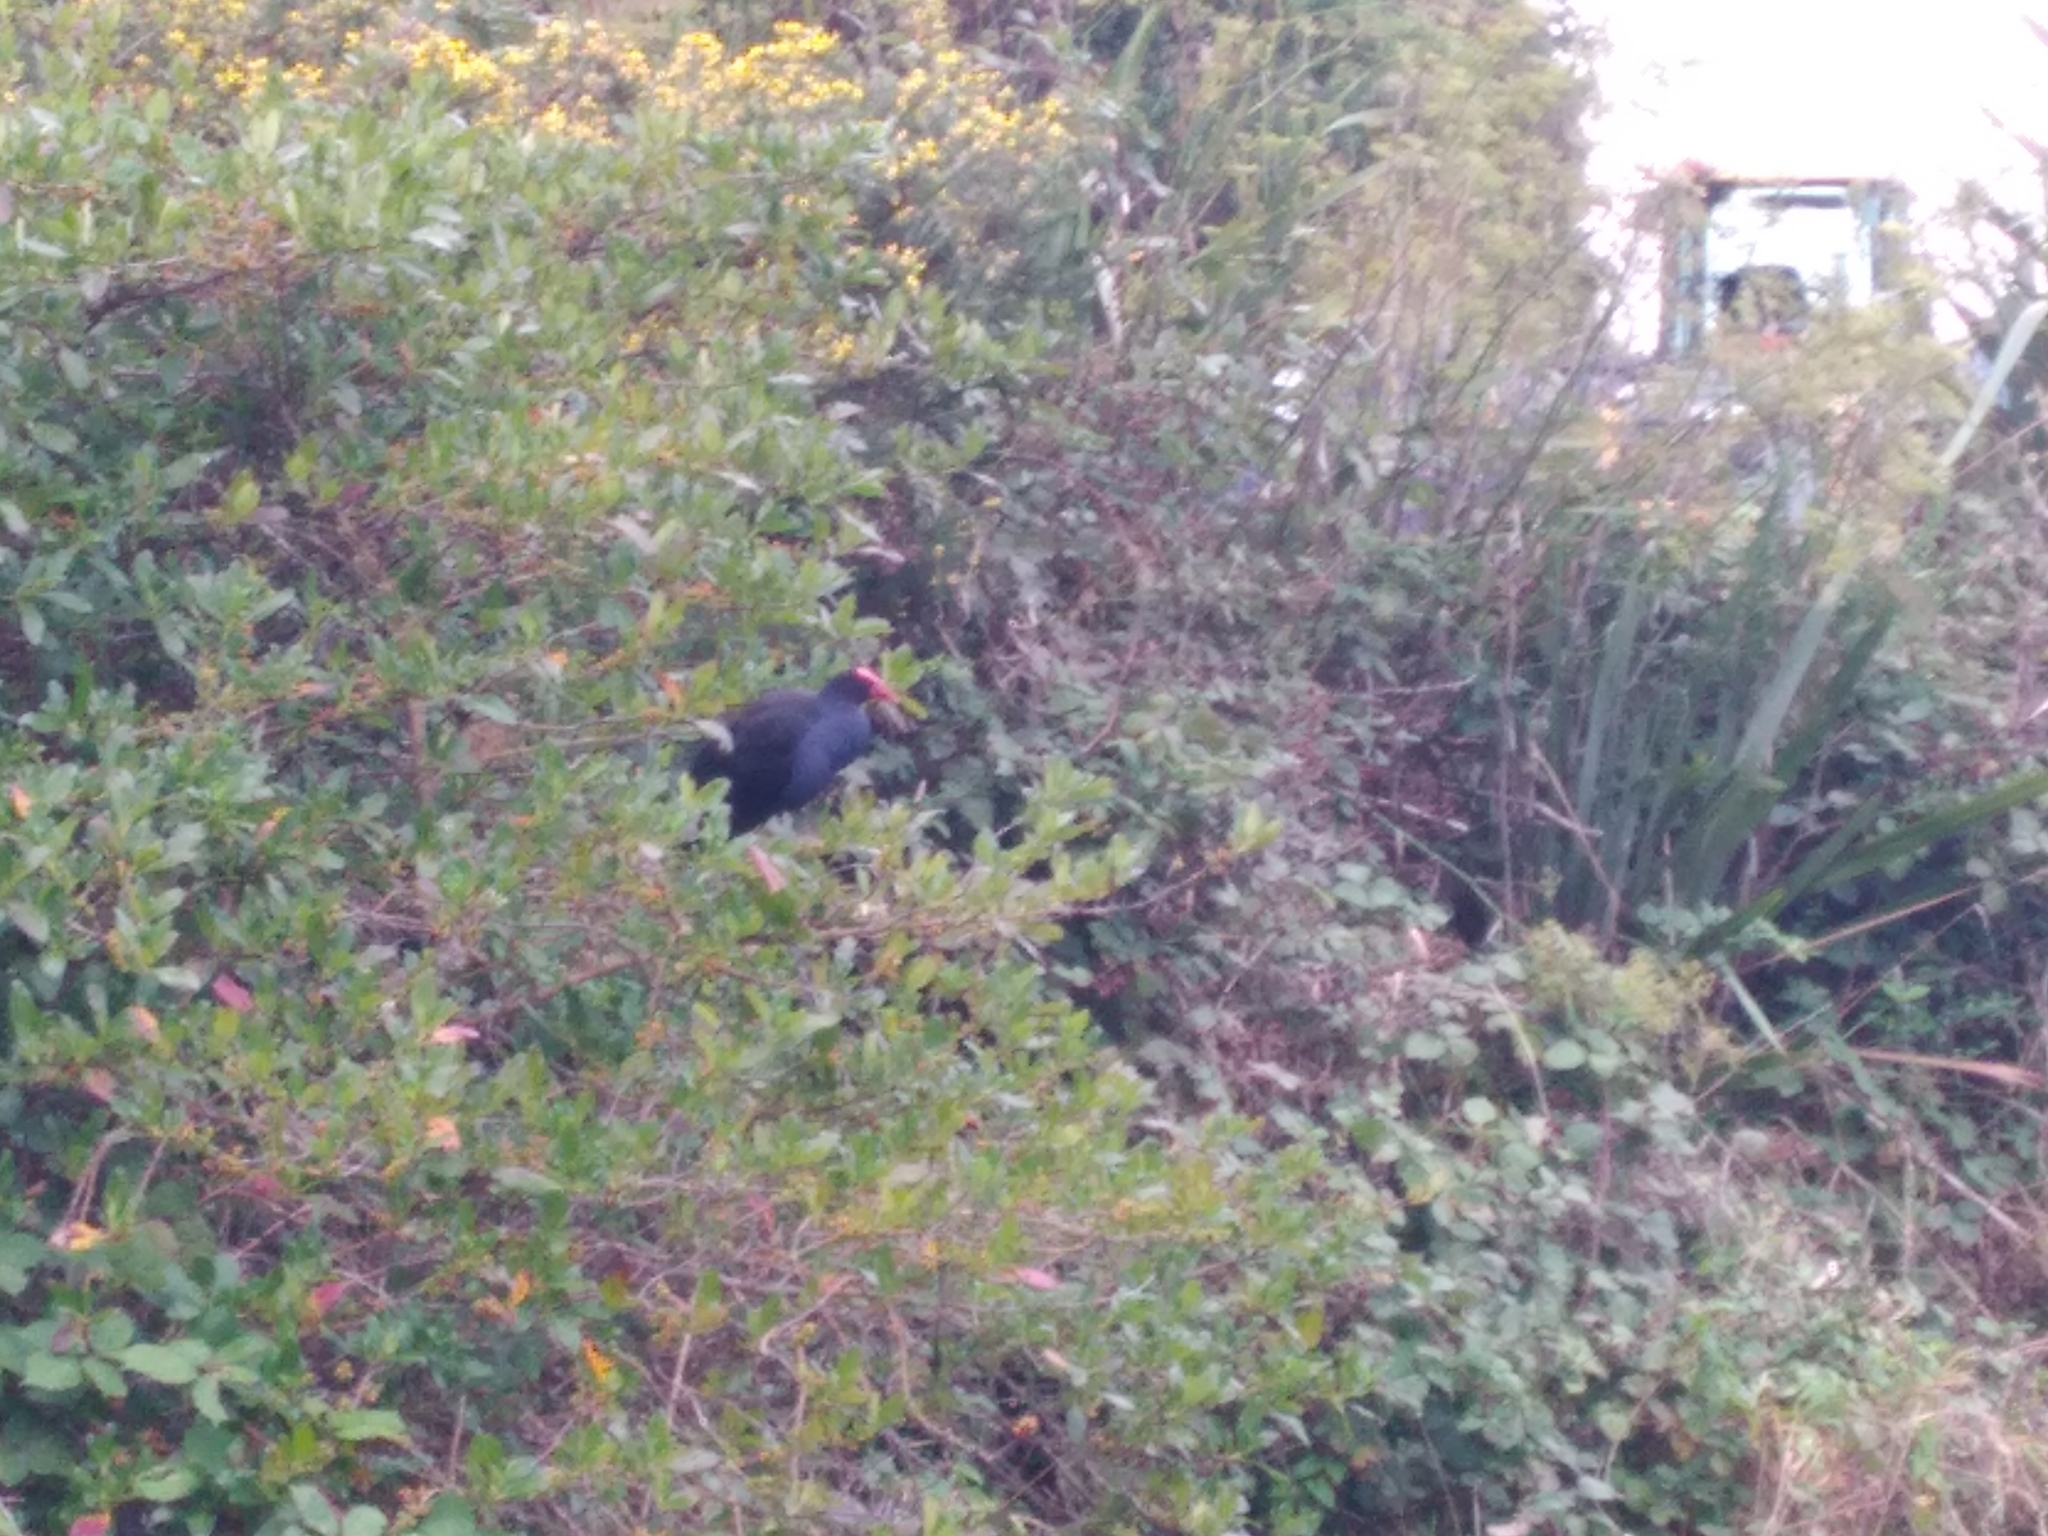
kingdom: Animalia
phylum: Chordata
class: Aves
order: Gruiformes
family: Rallidae
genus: Porphyrio
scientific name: Porphyrio melanotus
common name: Australasian swamphen
